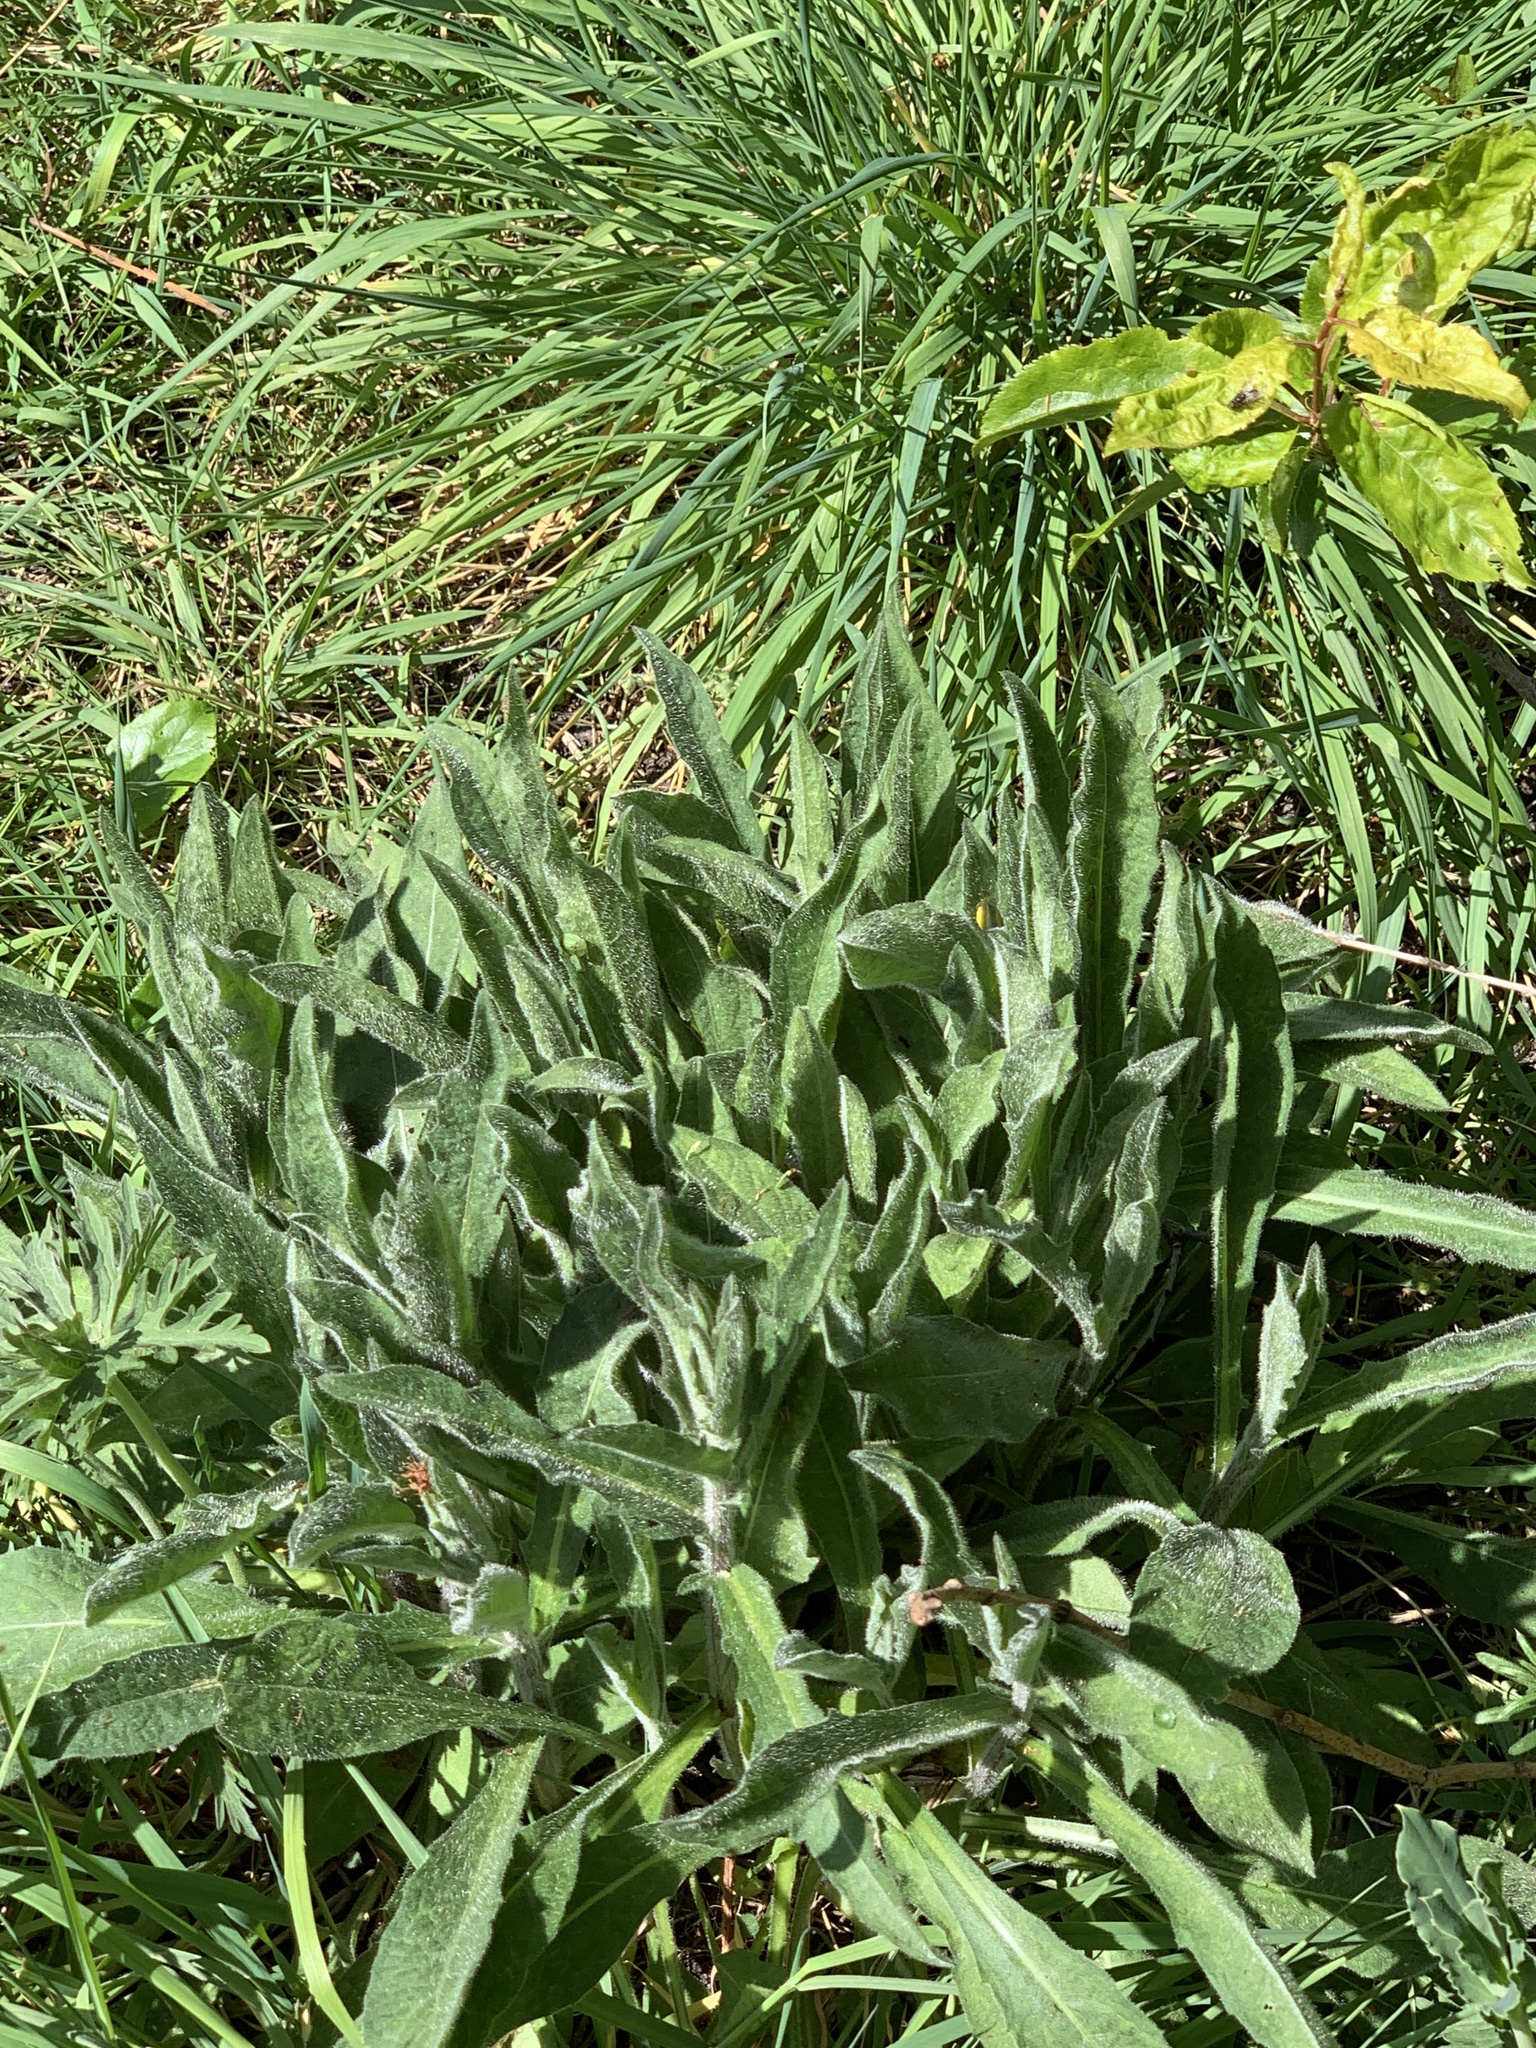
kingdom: Plantae
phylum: Tracheophyta
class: Magnoliopsida
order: Asterales
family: Asteraceae
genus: Centaurea
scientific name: Centaurea nigra
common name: Lesser knapweed
